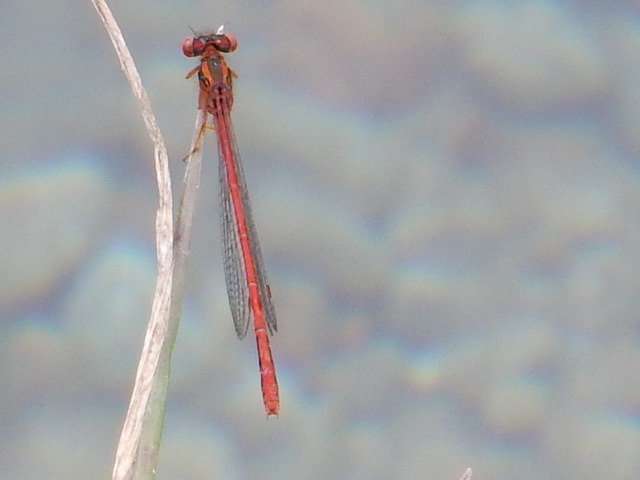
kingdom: Animalia
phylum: Arthropoda
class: Insecta
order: Odonata
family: Coenagrionidae
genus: Xanthocnemis
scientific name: Xanthocnemis zealandica
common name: Common redcoat damselfly
